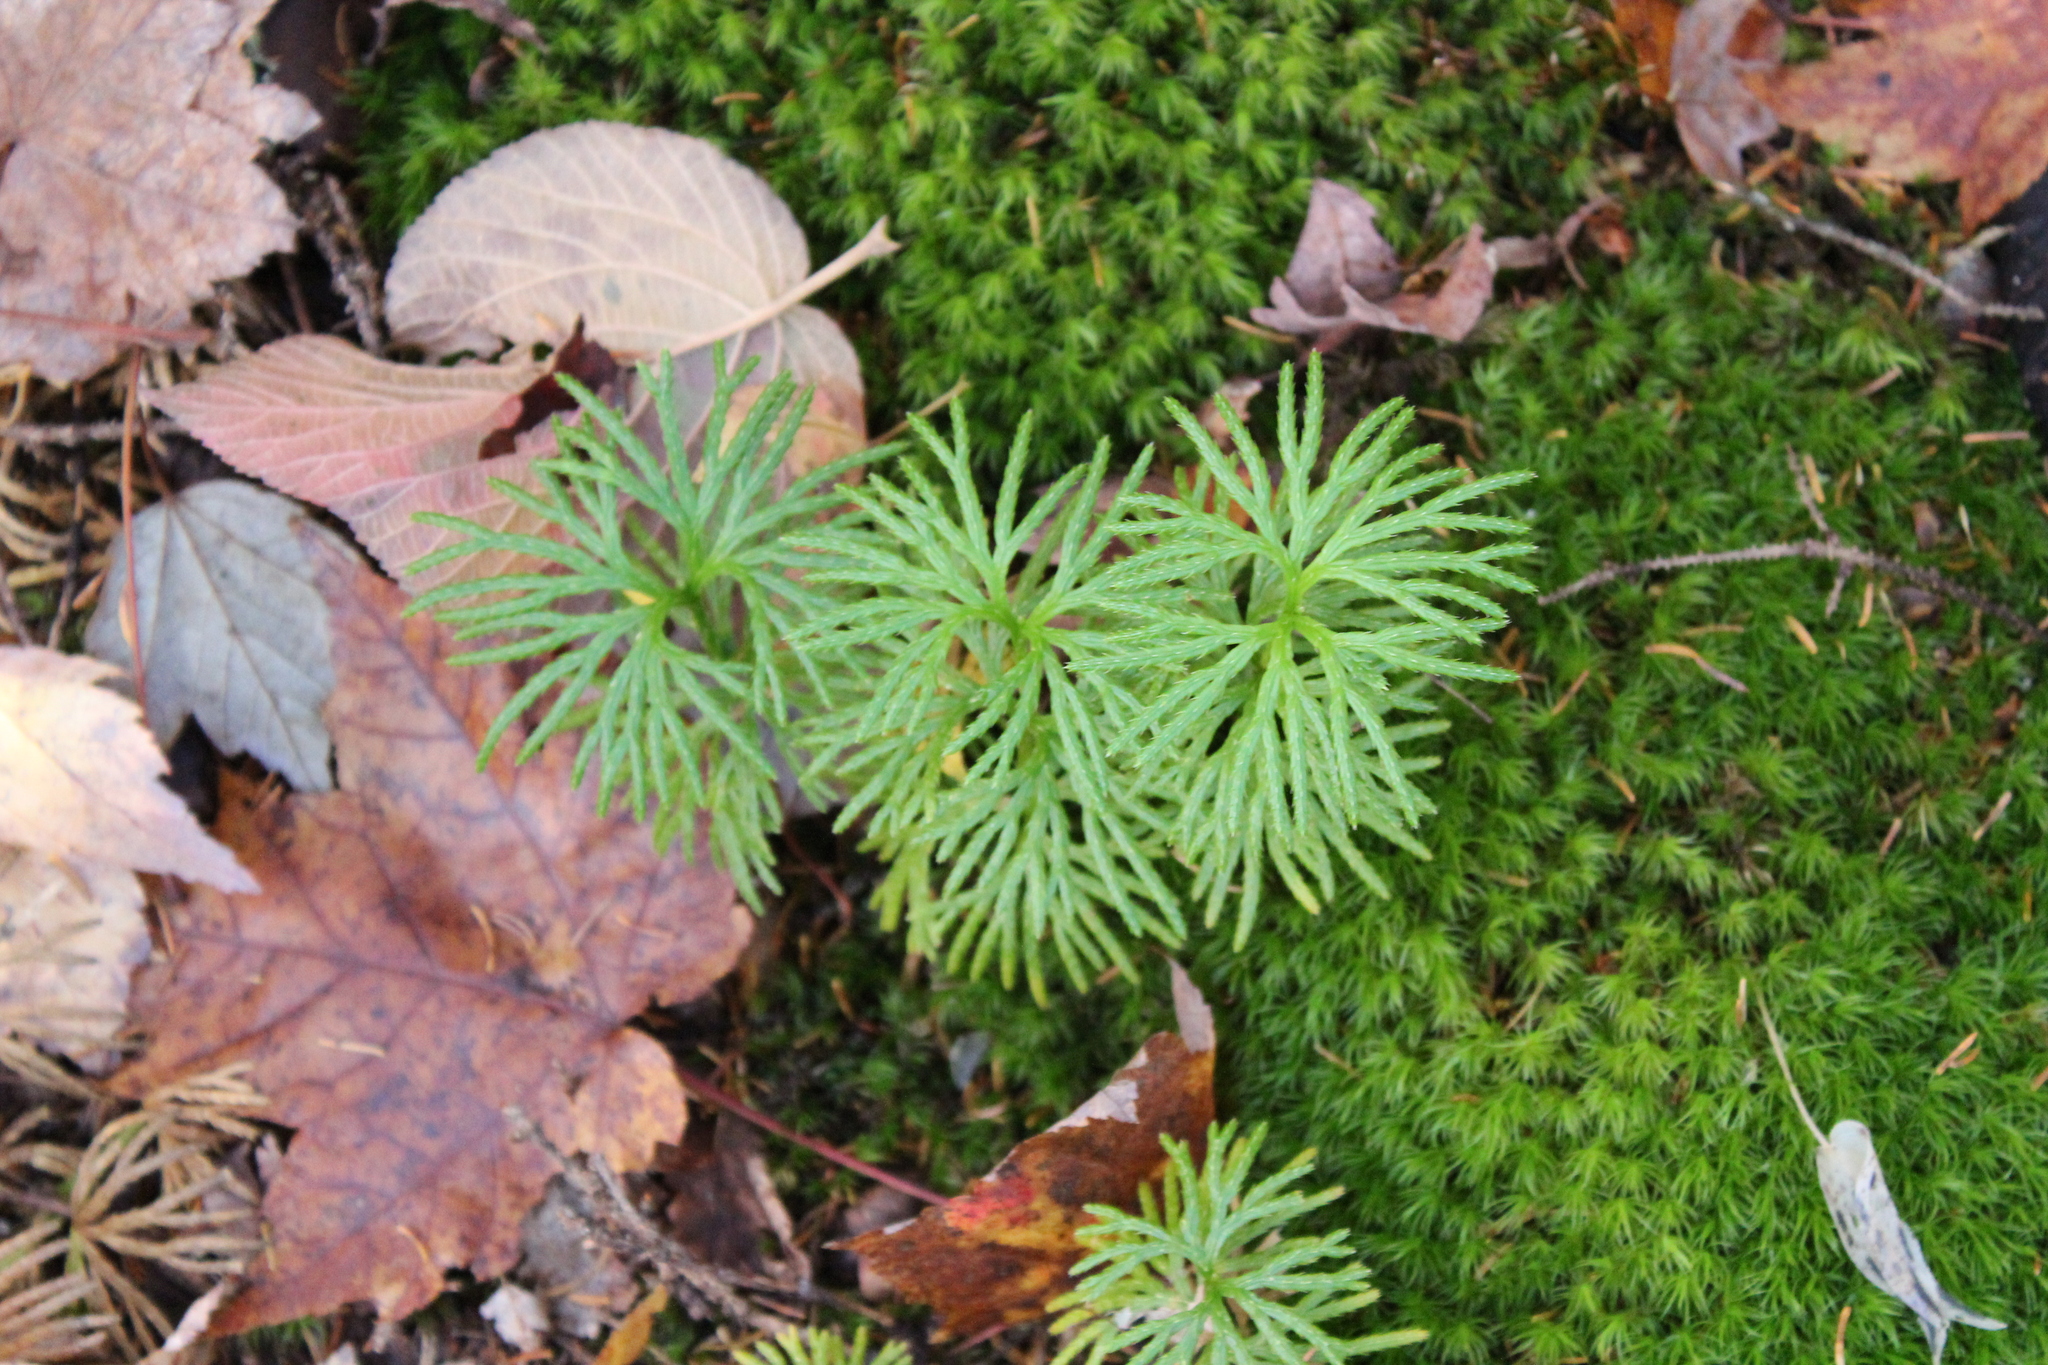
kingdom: Plantae
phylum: Tracheophyta
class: Lycopodiopsida
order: Lycopodiales
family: Lycopodiaceae
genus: Diphasiastrum
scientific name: Diphasiastrum digitatum
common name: Southern running-pine
